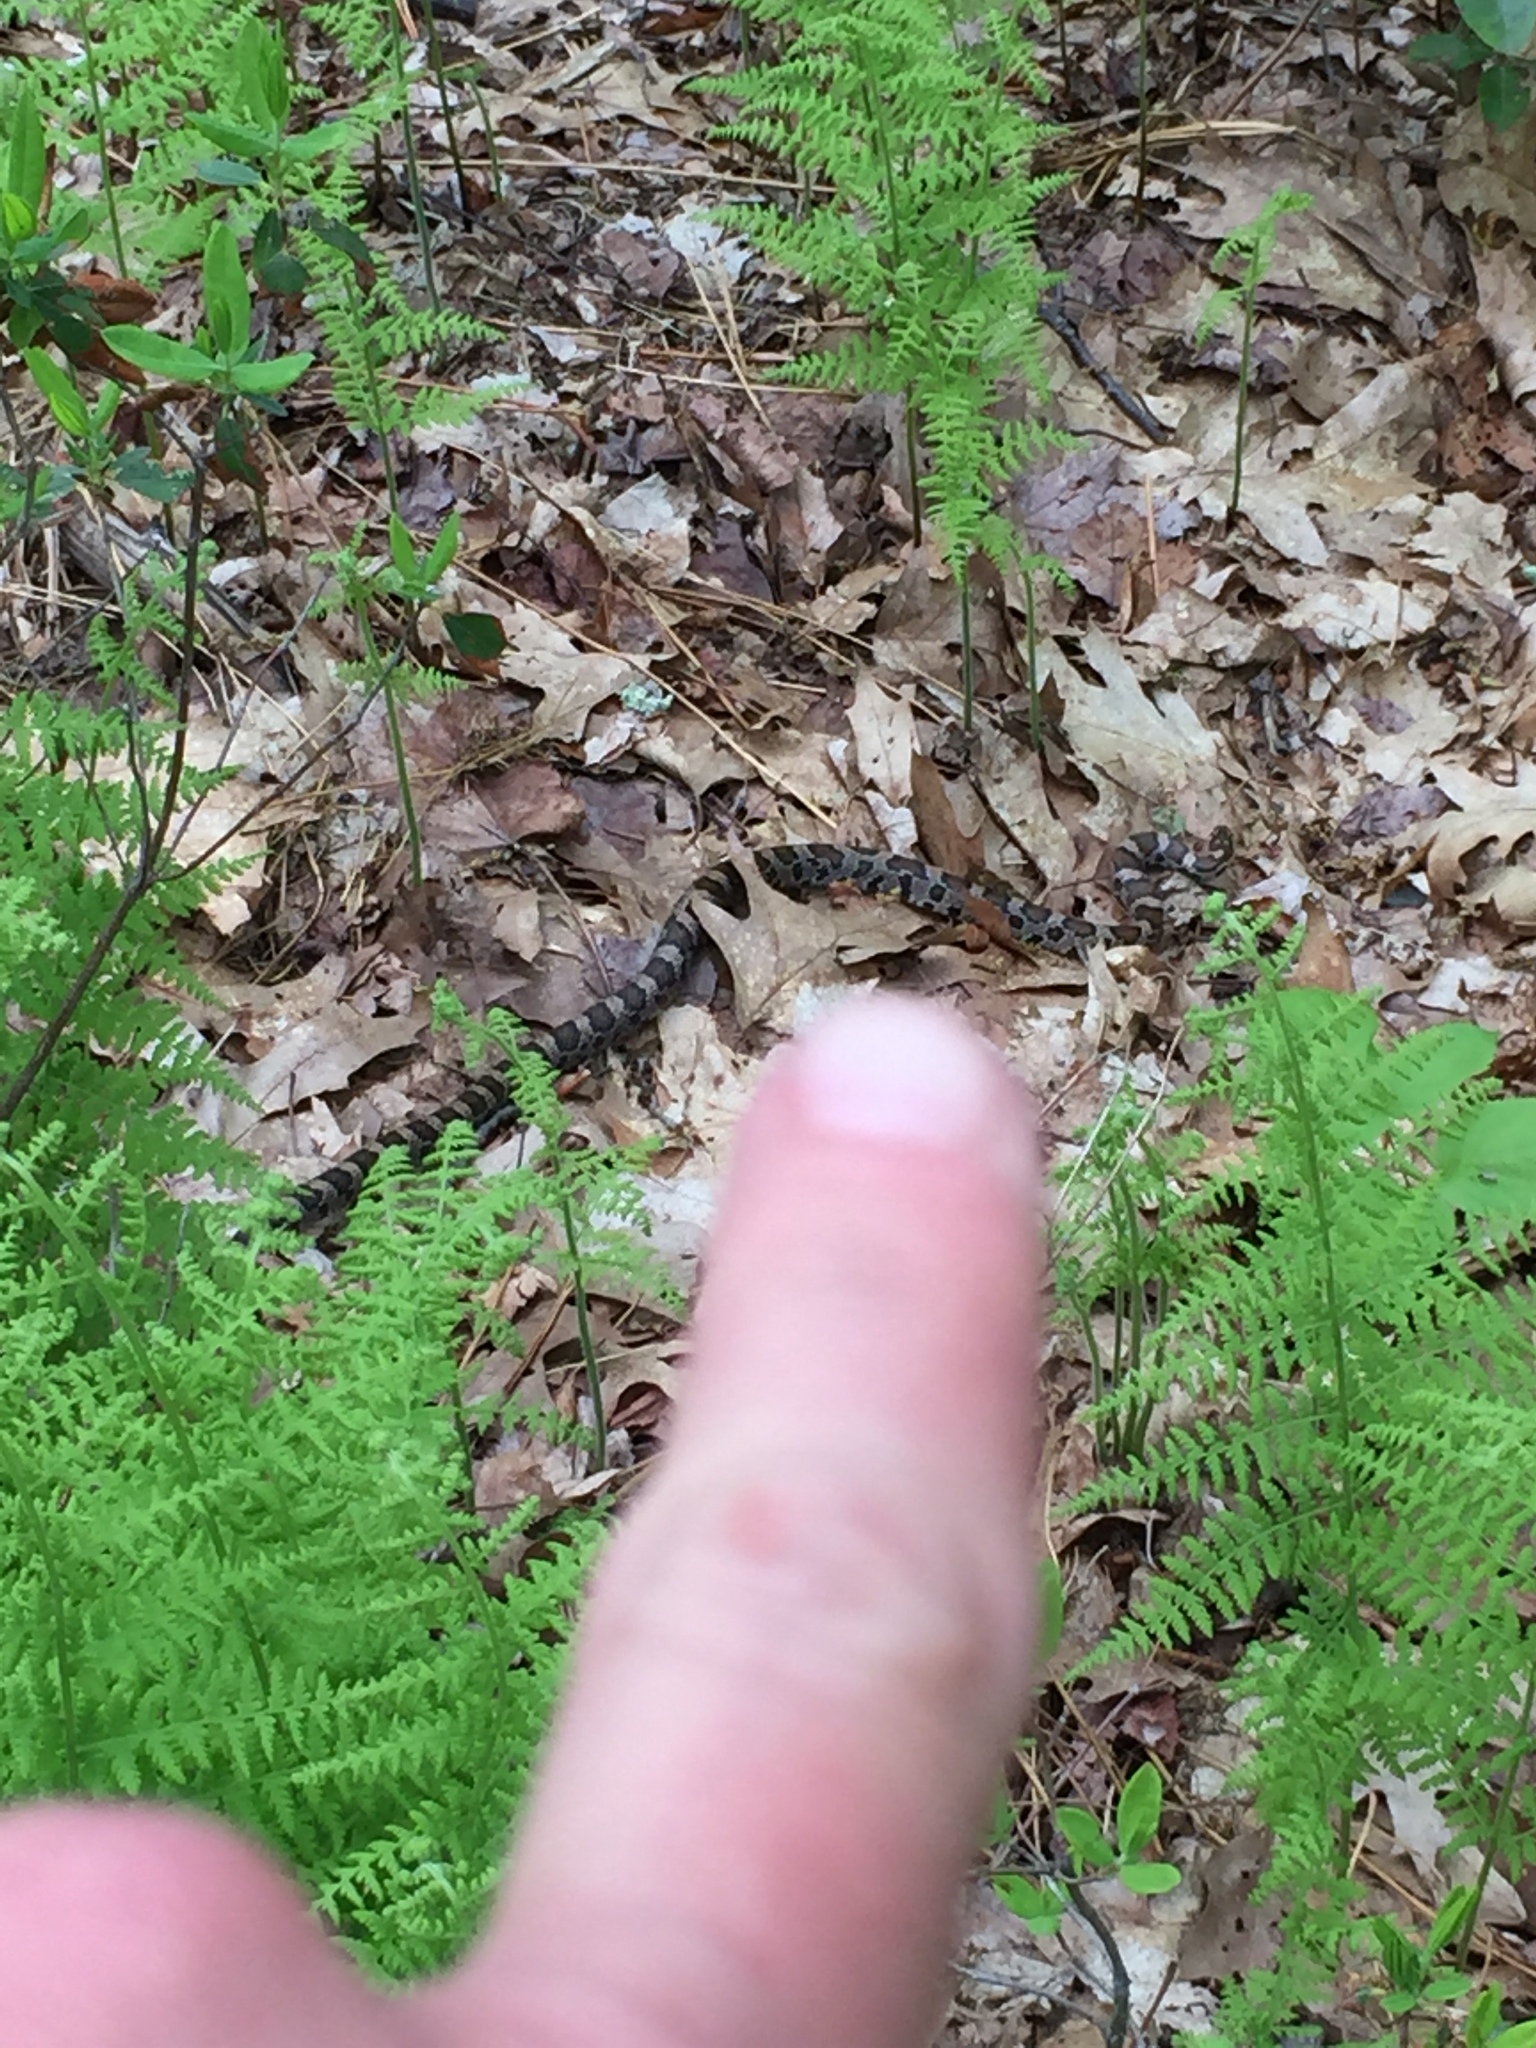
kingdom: Animalia
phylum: Chordata
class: Squamata
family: Colubridae
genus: Lampropeltis
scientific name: Lampropeltis triangulum
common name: Eastern milksnake
